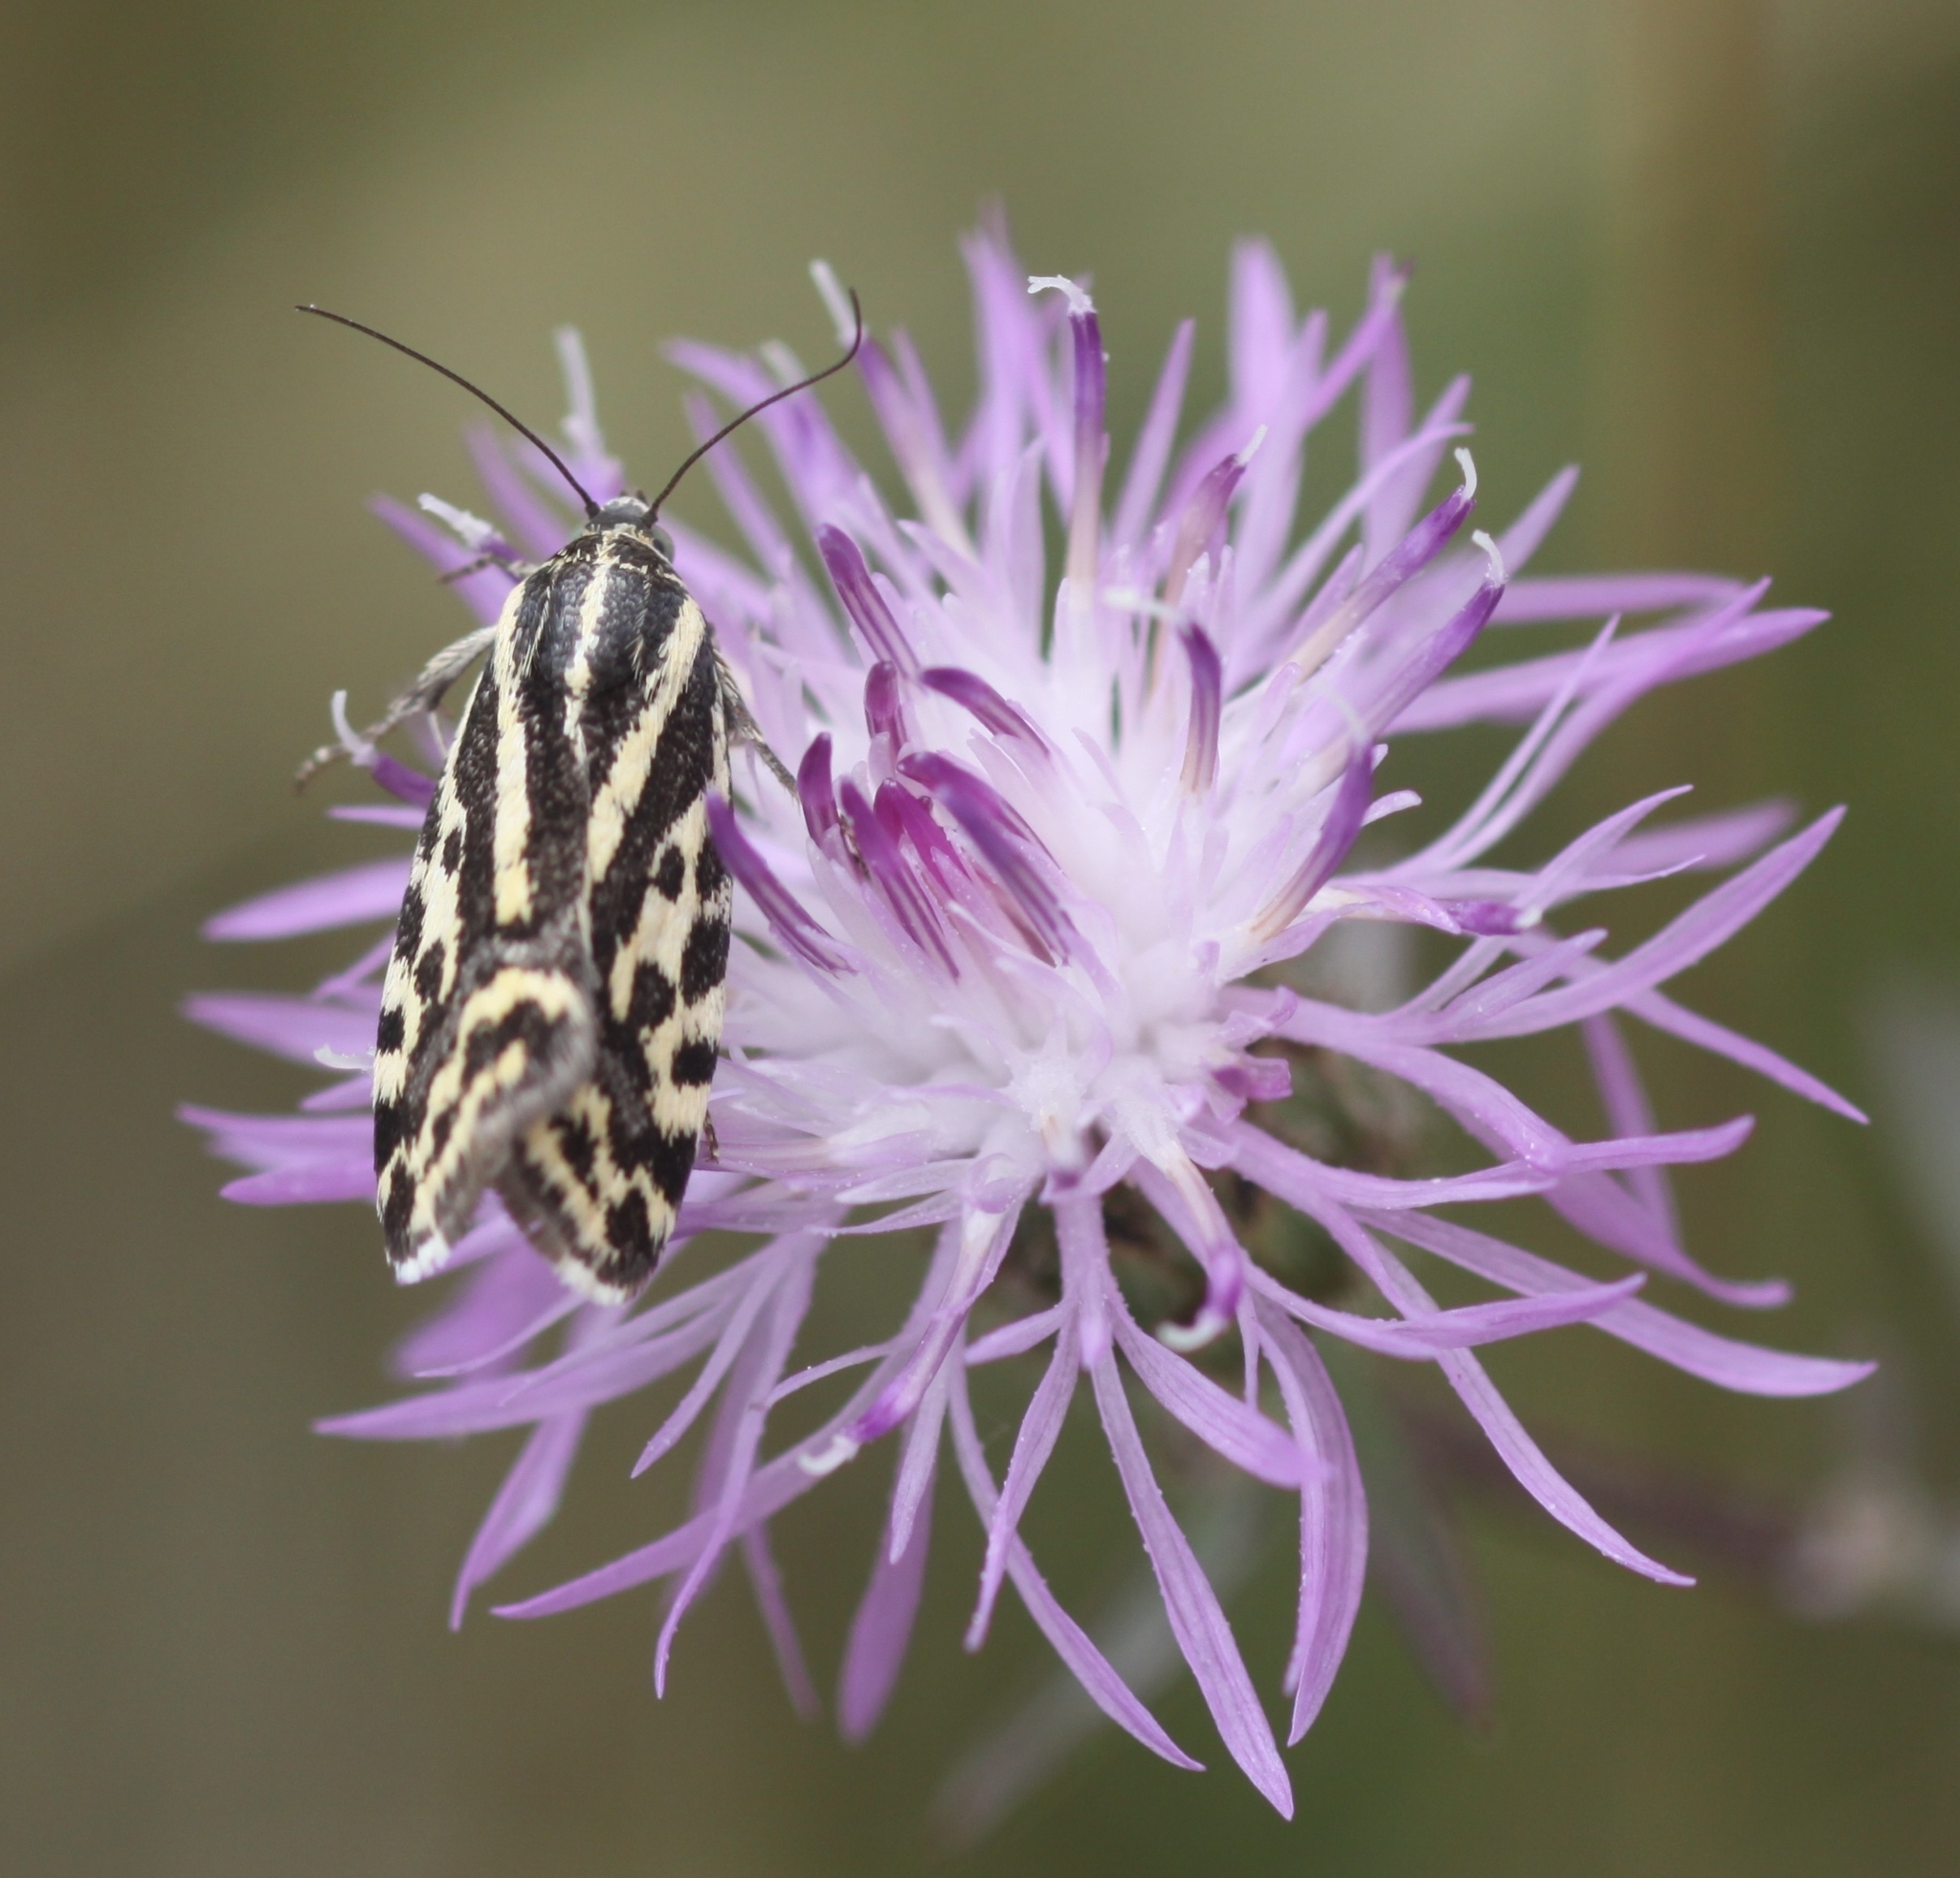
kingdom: Animalia
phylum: Arthropoda
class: Insecta
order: Lepidoptera
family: Noctuidae
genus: Acontia
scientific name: Acontia trabealis
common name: Spotted sulphur
